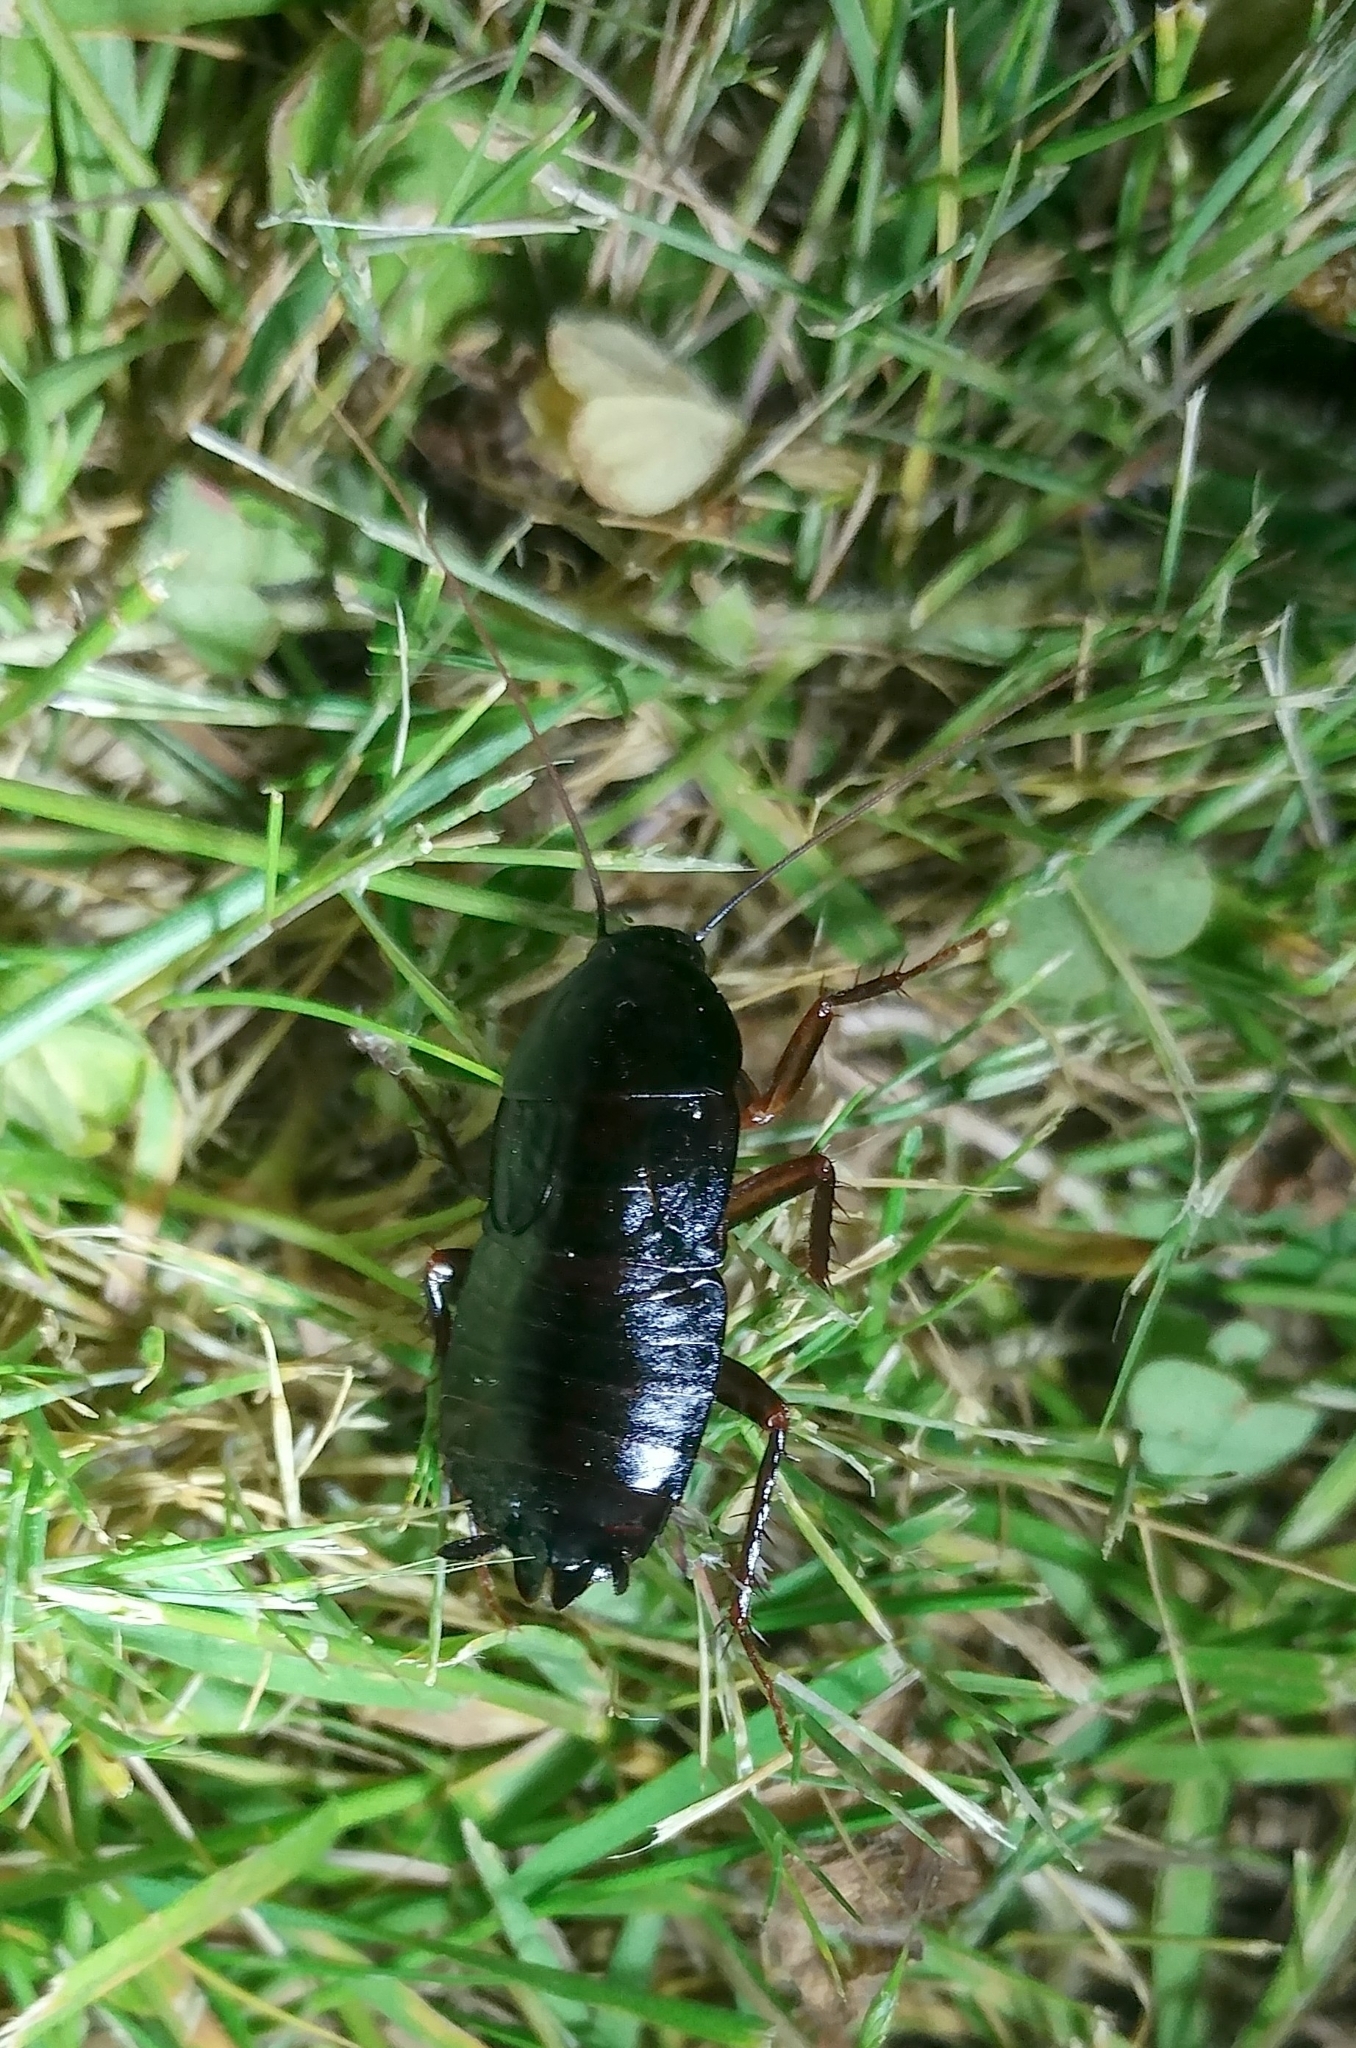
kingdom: Animalia
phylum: Arthropoda
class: Insecta
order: Blattodea
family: Blattidae
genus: Blatta
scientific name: Blatta orientalis
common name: Oriental cockroach
